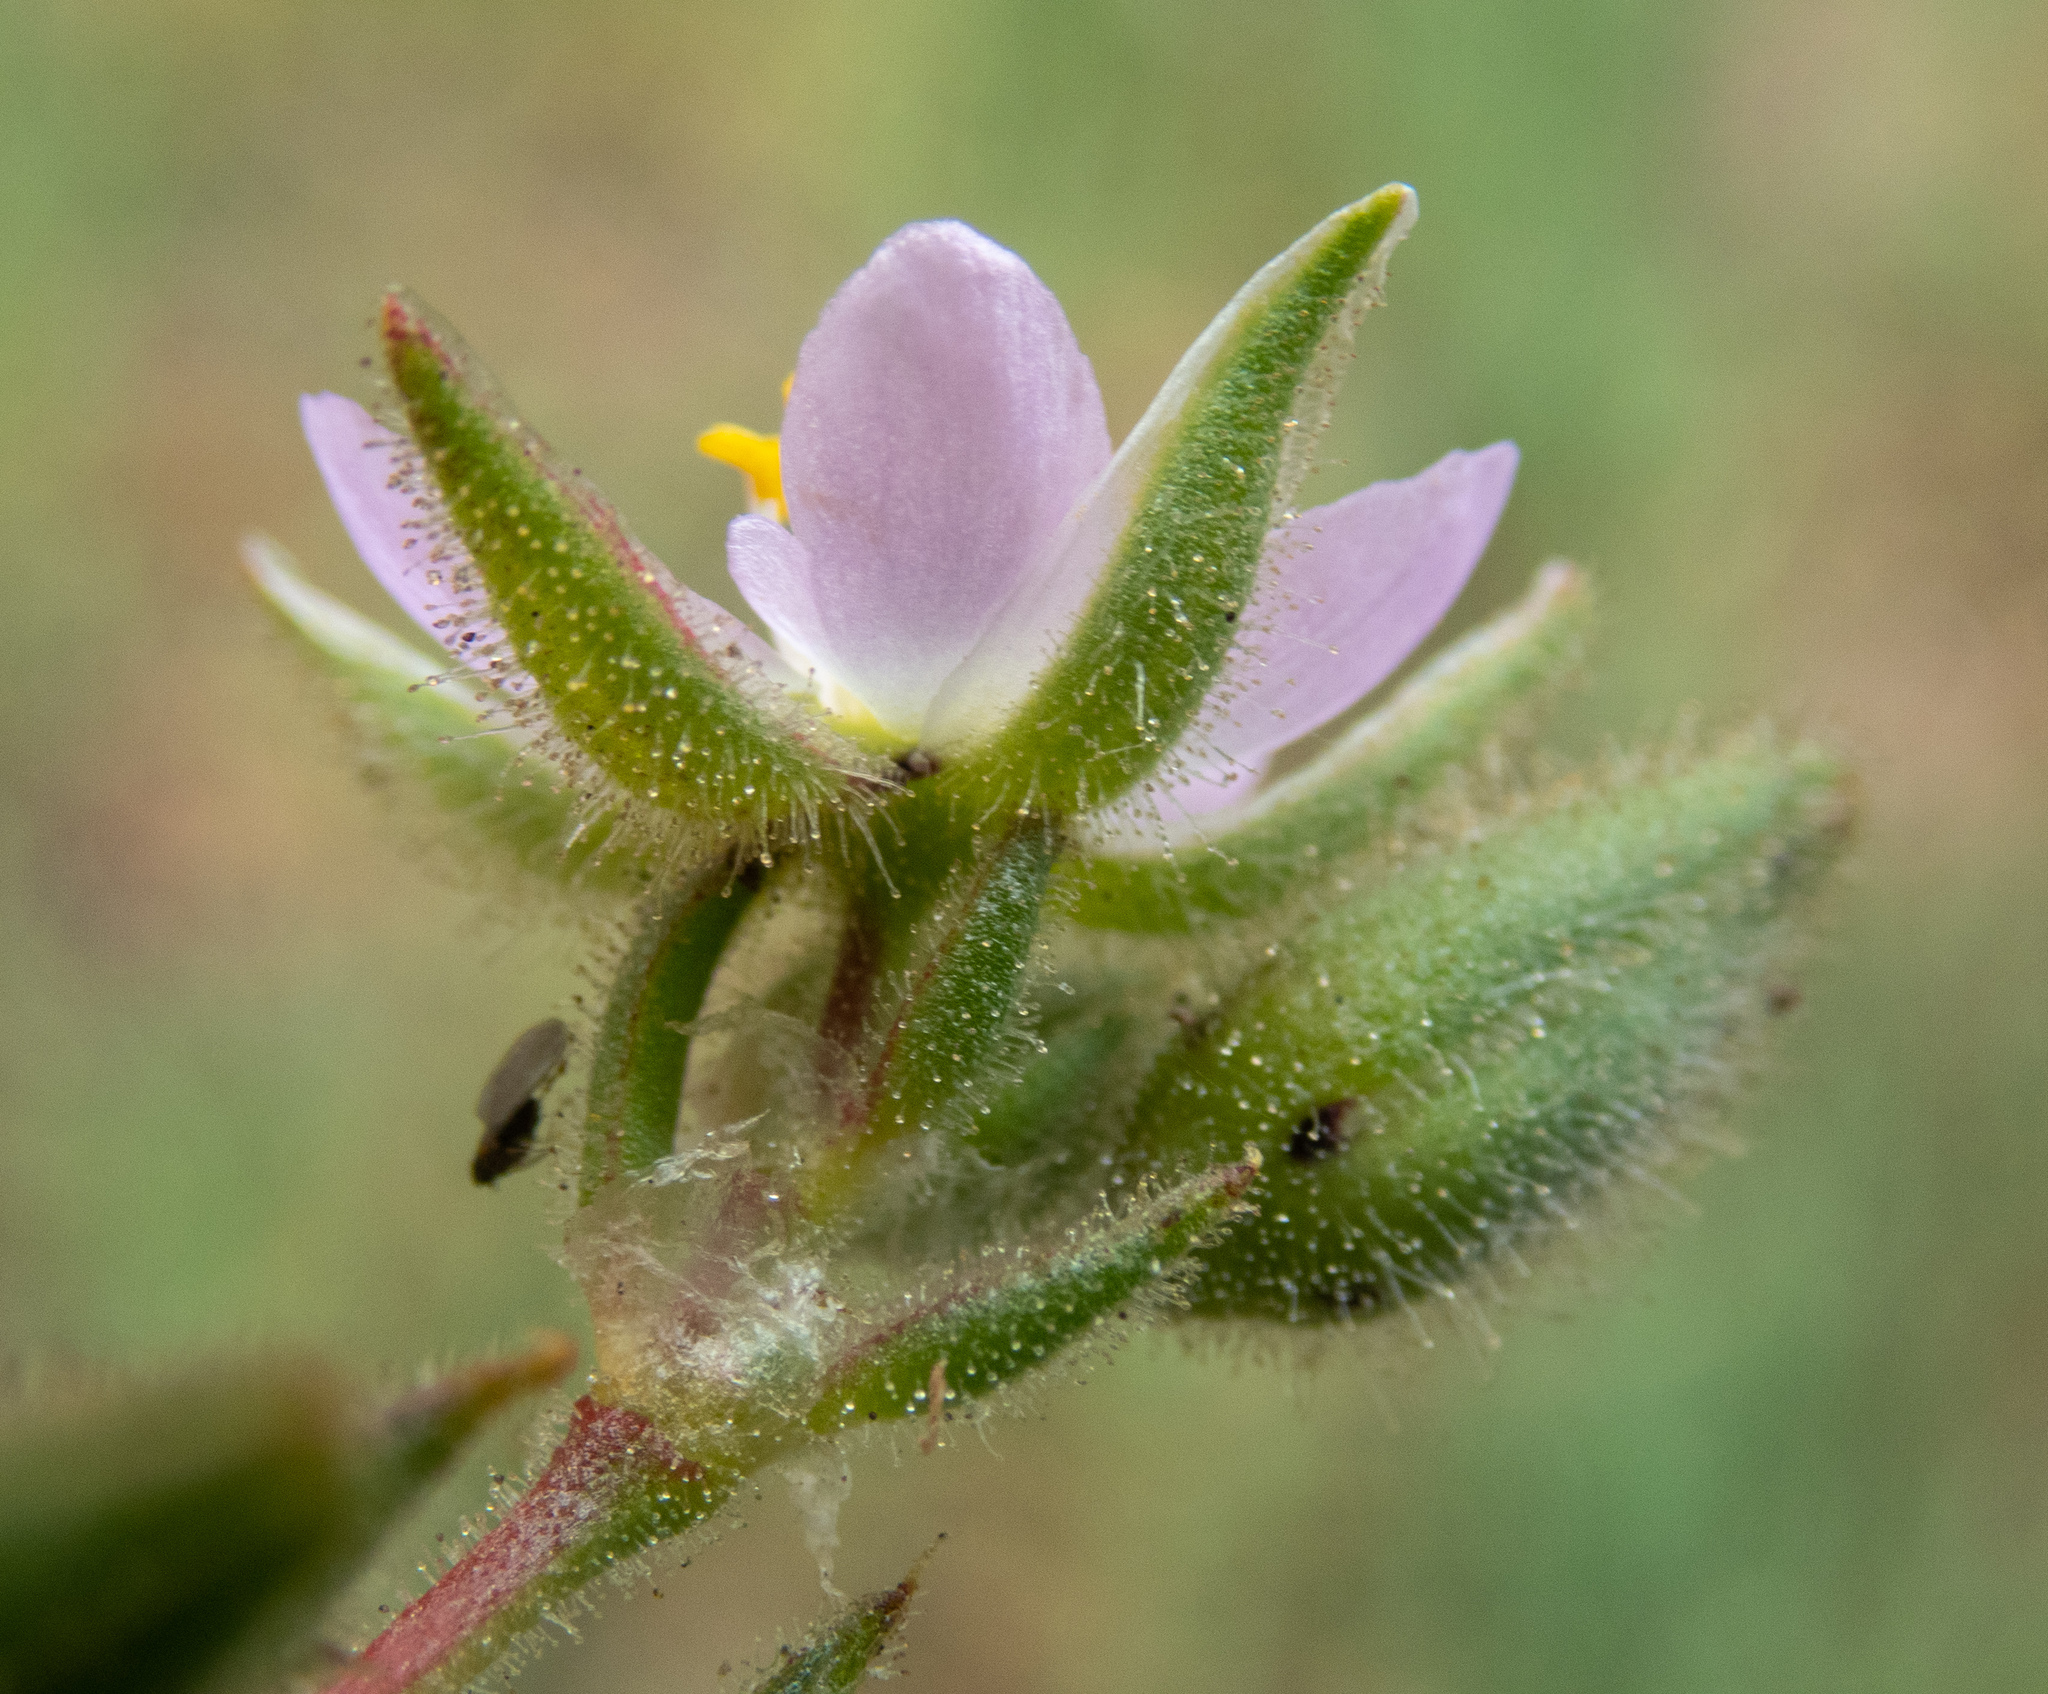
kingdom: Plantae
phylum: Tracheophyta
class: Magnoliopsida
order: Caryophyllales
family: Caryophyllaceae
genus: Spergularia
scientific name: Spergularia macrotheca
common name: Beach sand-spurrey
